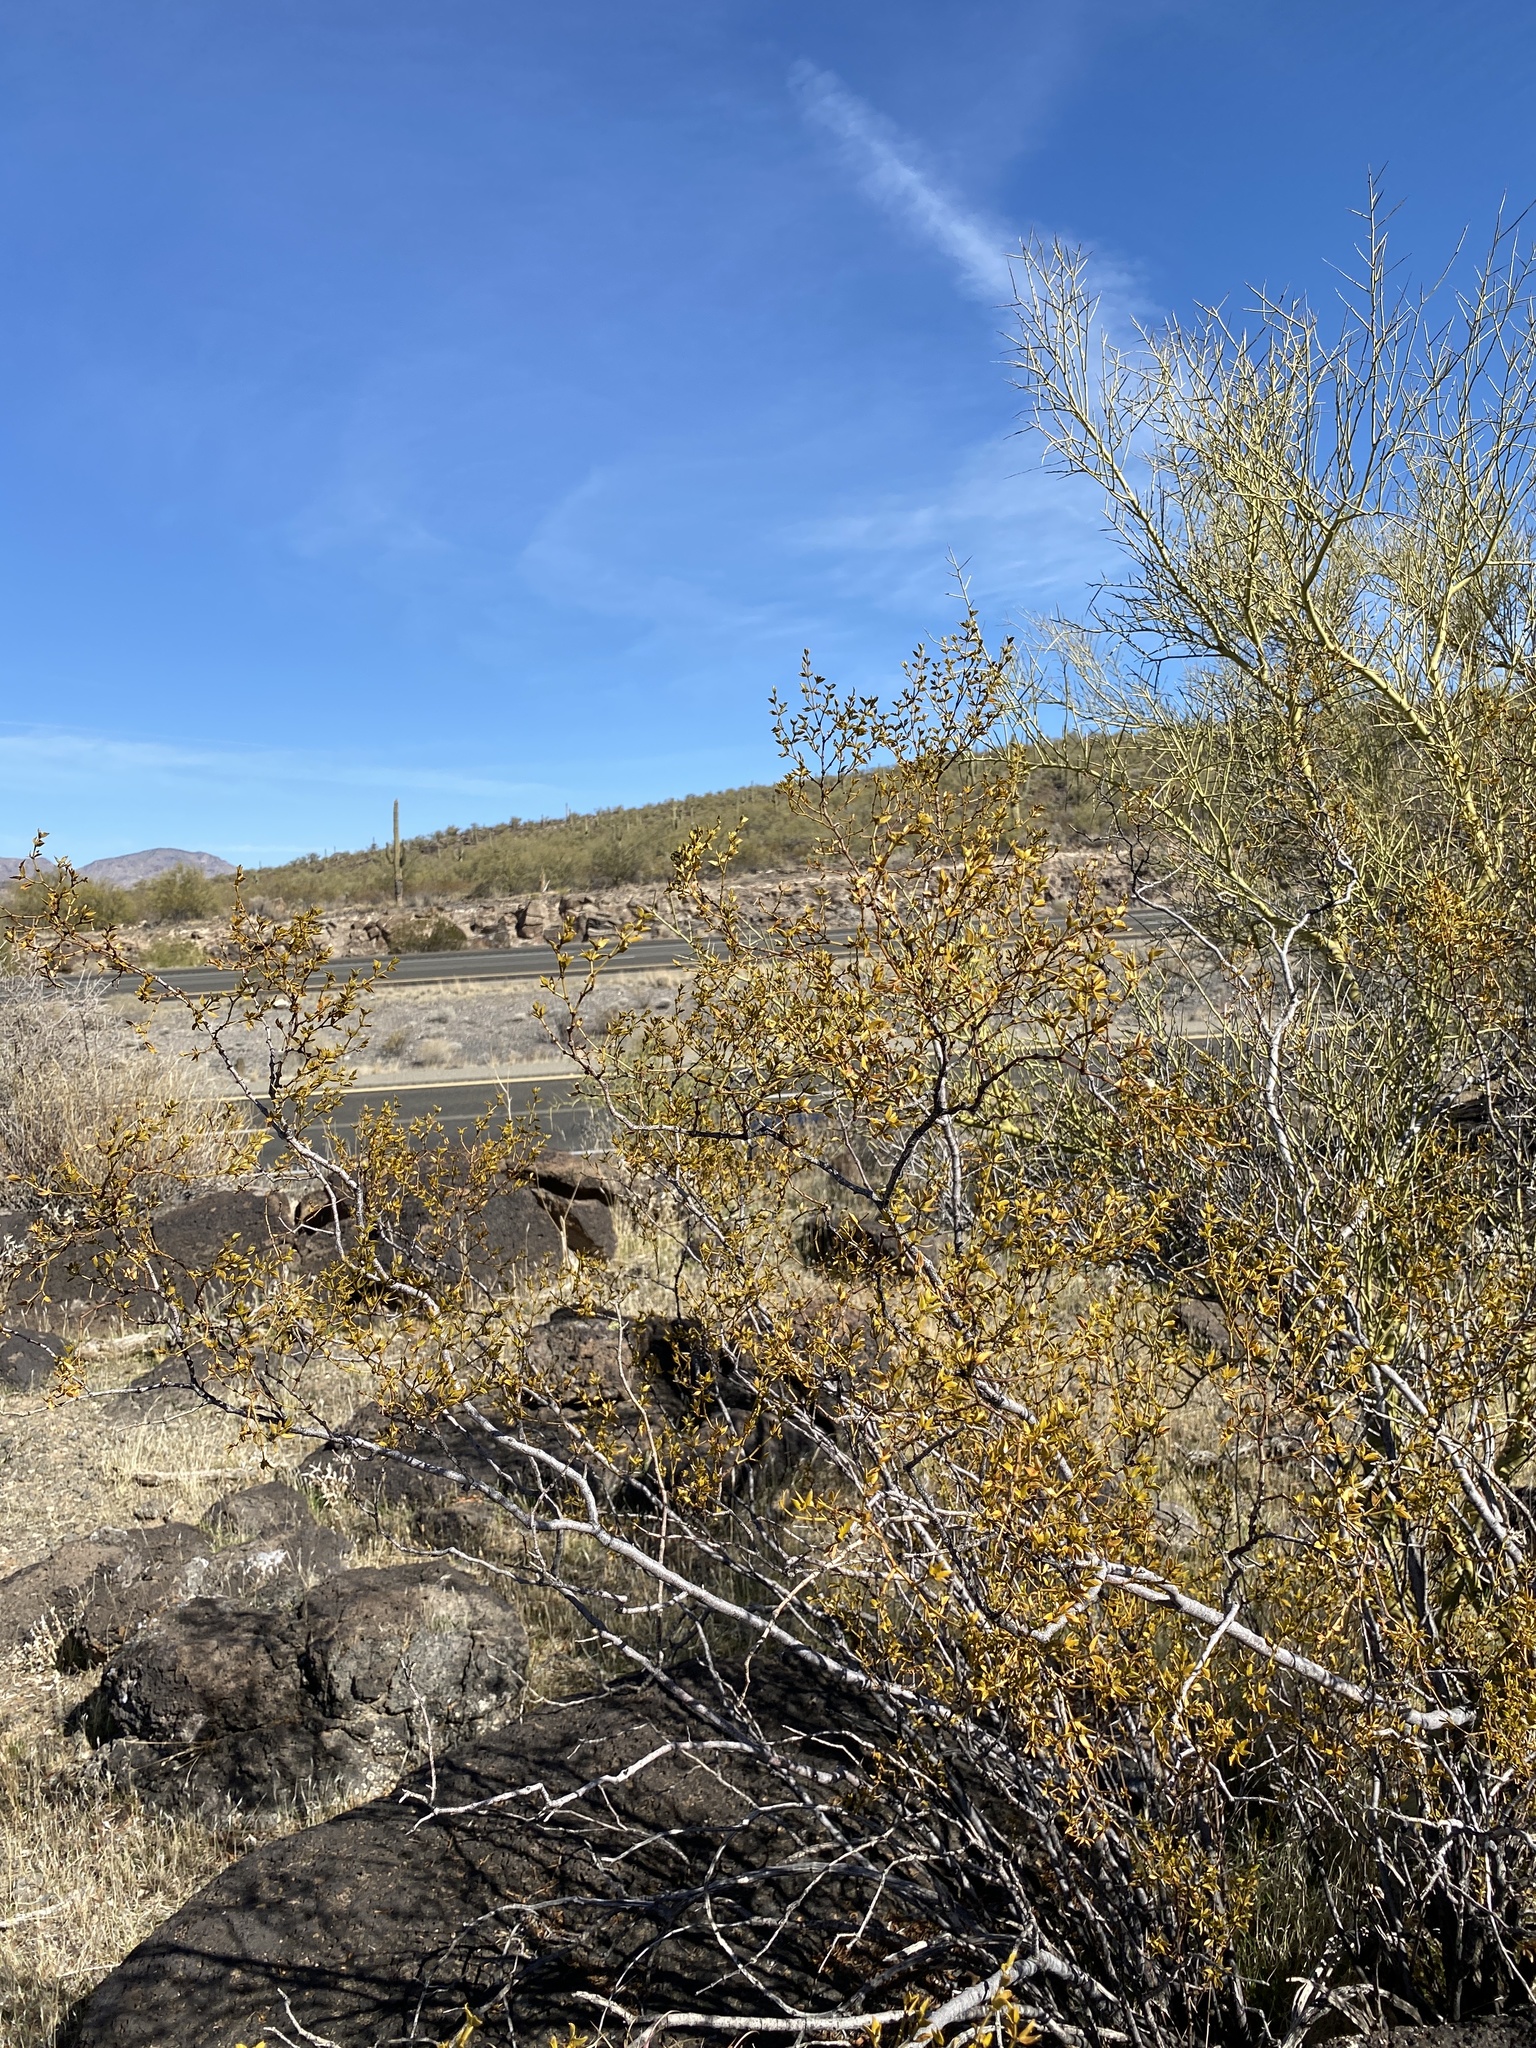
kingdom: Plantae
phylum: Tracheophyta
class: Magnoliopsida
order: Zygophyllales
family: Zygophyllaceae
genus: Larrea
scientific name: Larrea tridentata
